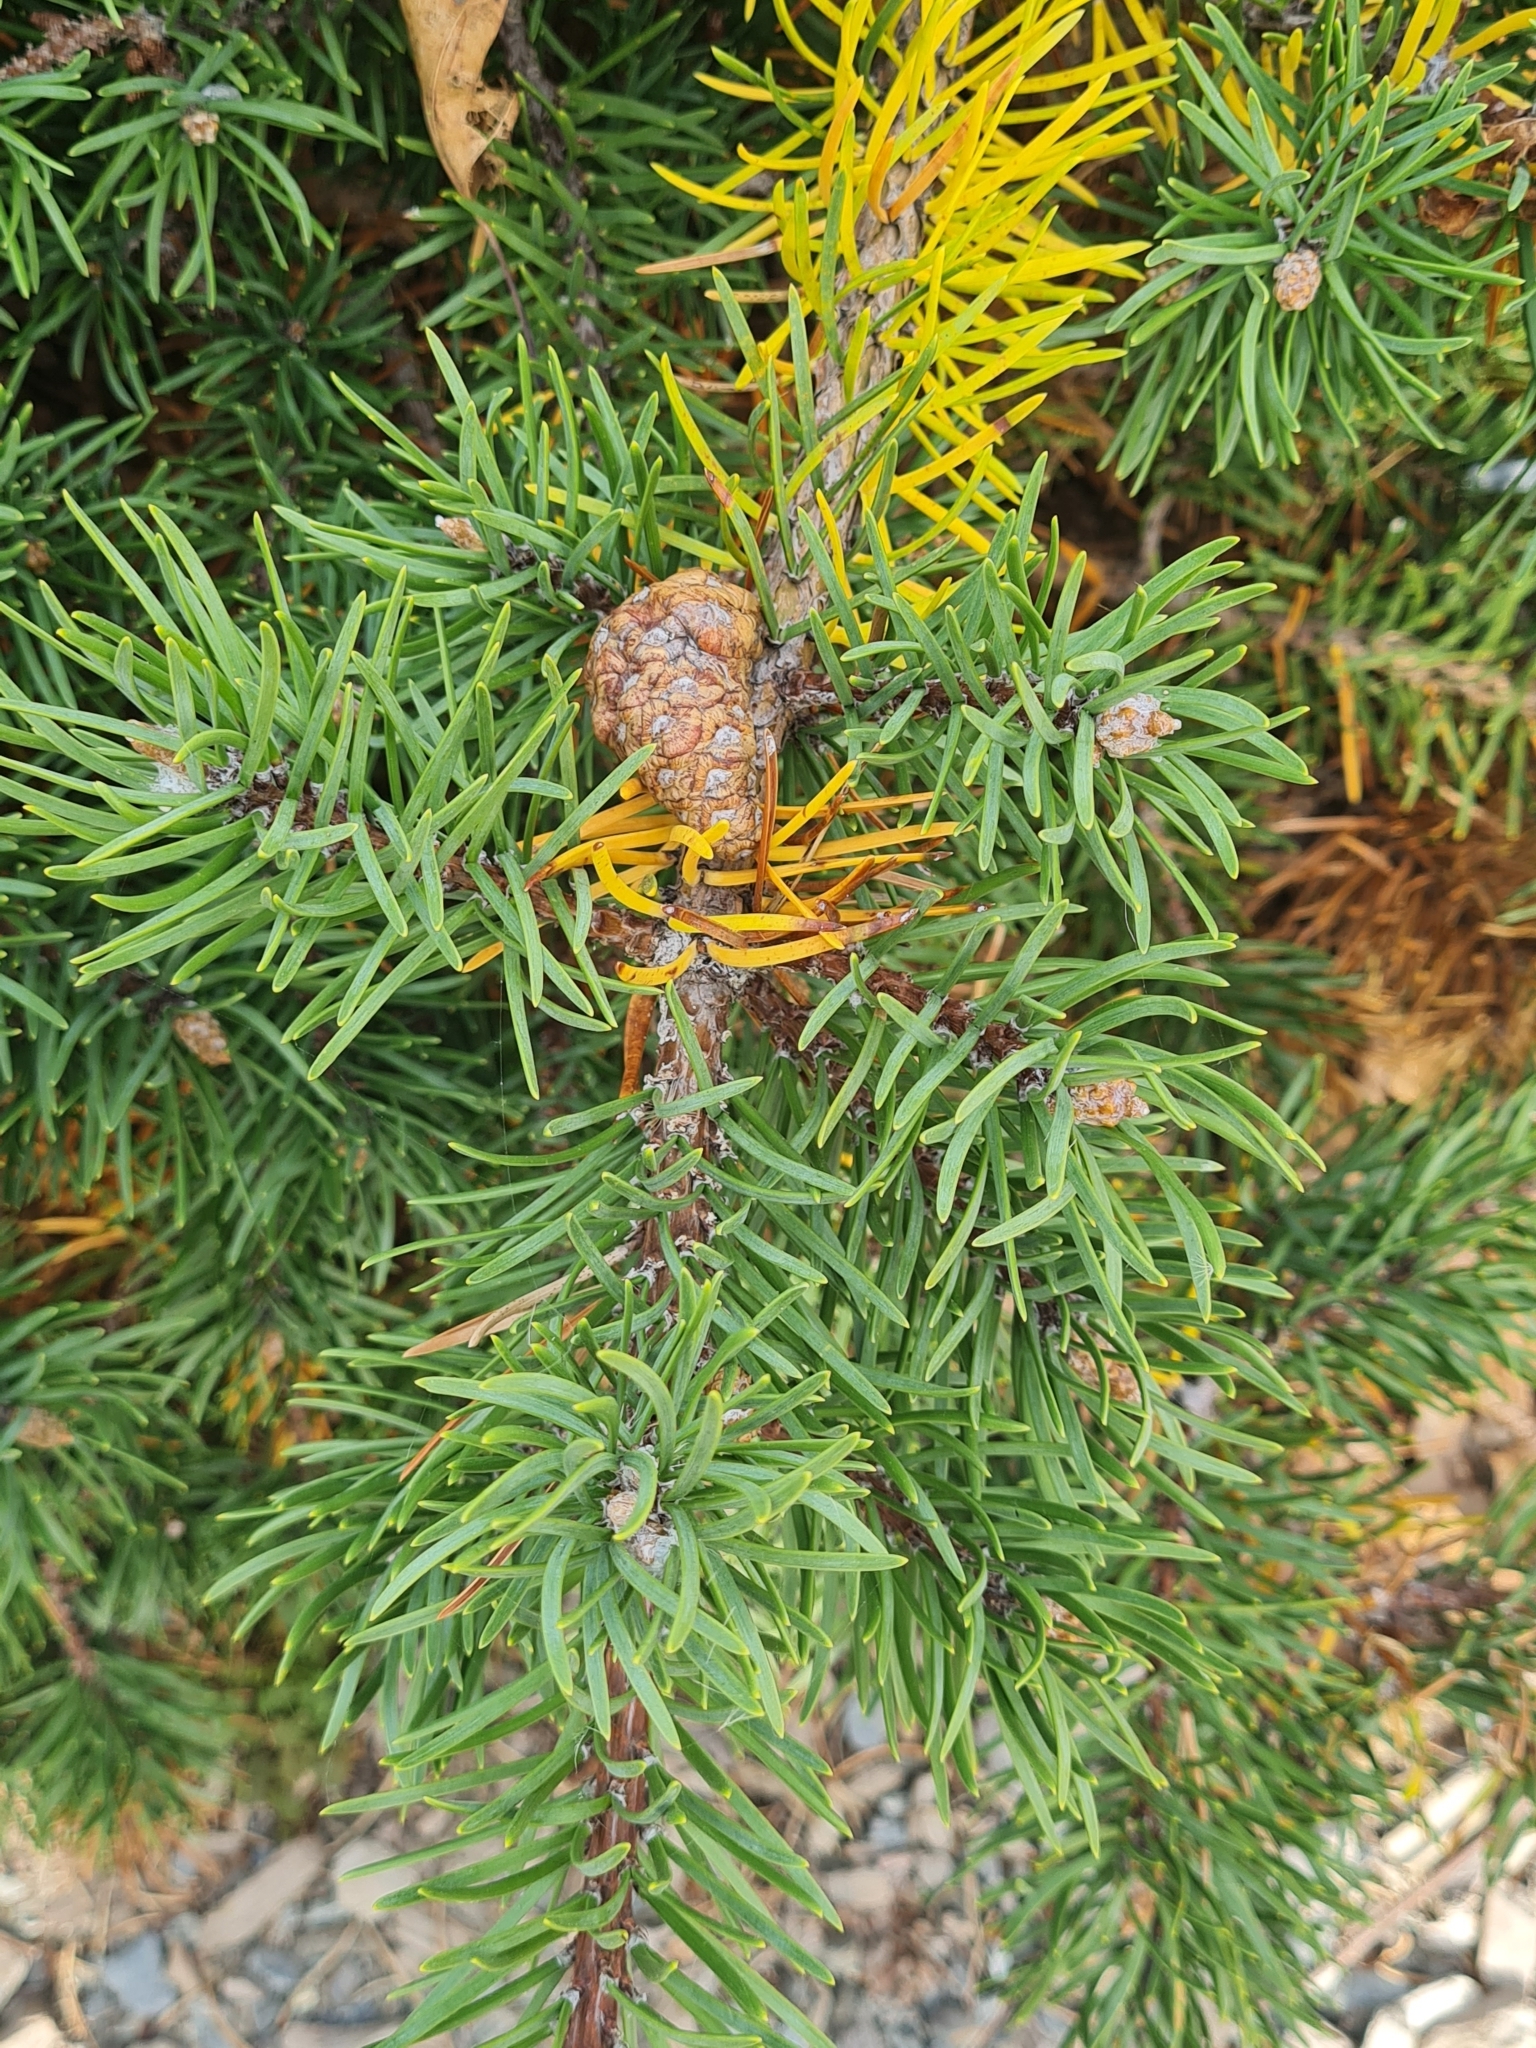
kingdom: Plantae
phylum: Tracheophyta
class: Pinopsida
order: Pinales
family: Pinaceae
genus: Pinus
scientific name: Pinus banksiana
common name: Jack pine
